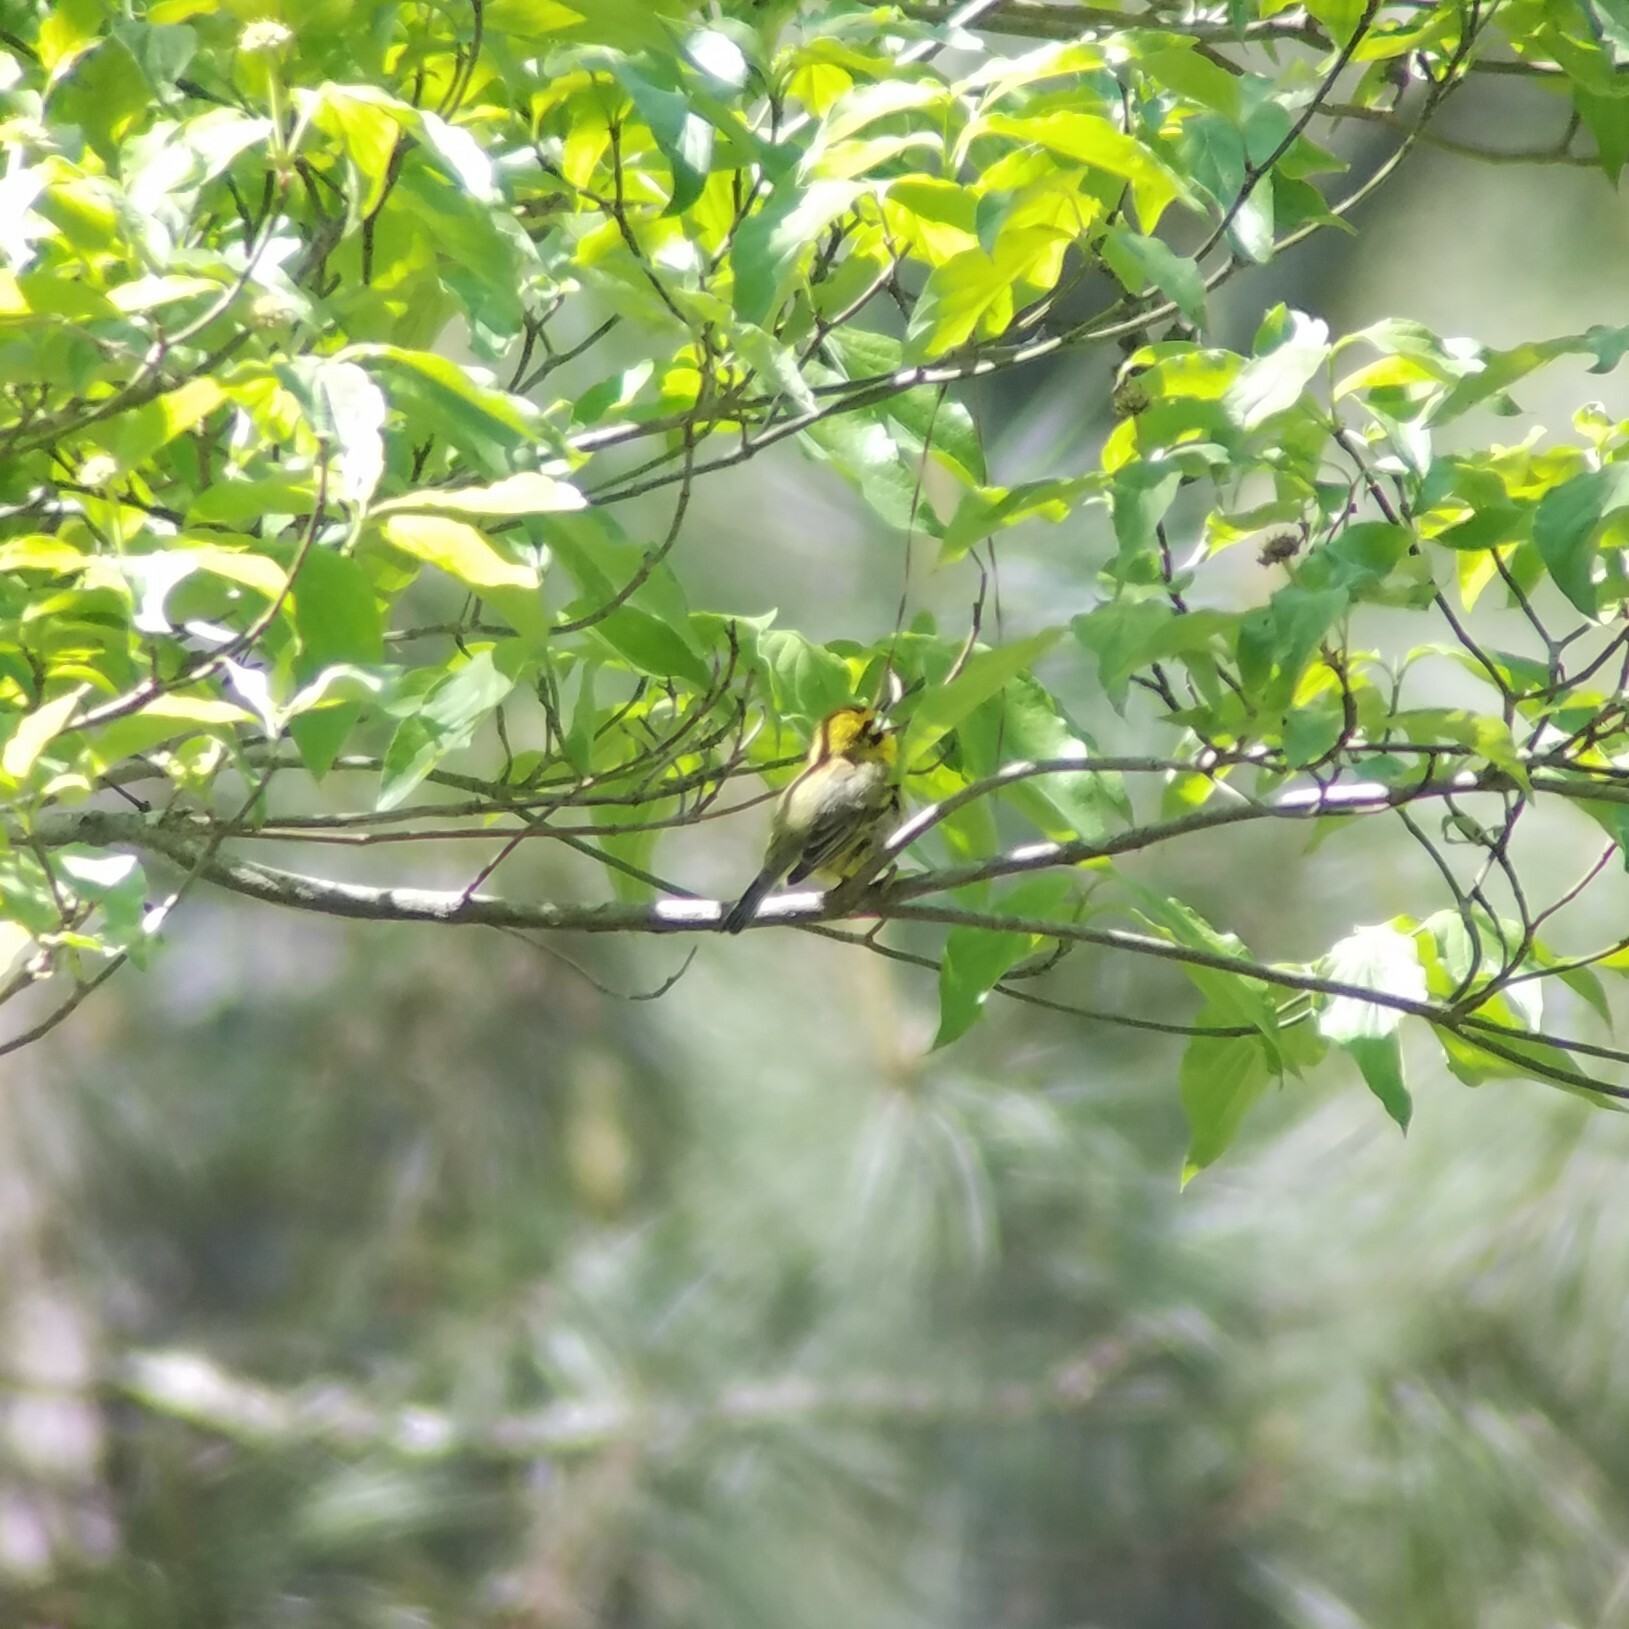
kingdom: Animalia
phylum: Chordata
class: Aves
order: Passeriformes
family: Parulidae
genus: Setophaga
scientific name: Setophaga discolor
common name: Prairie warbler
